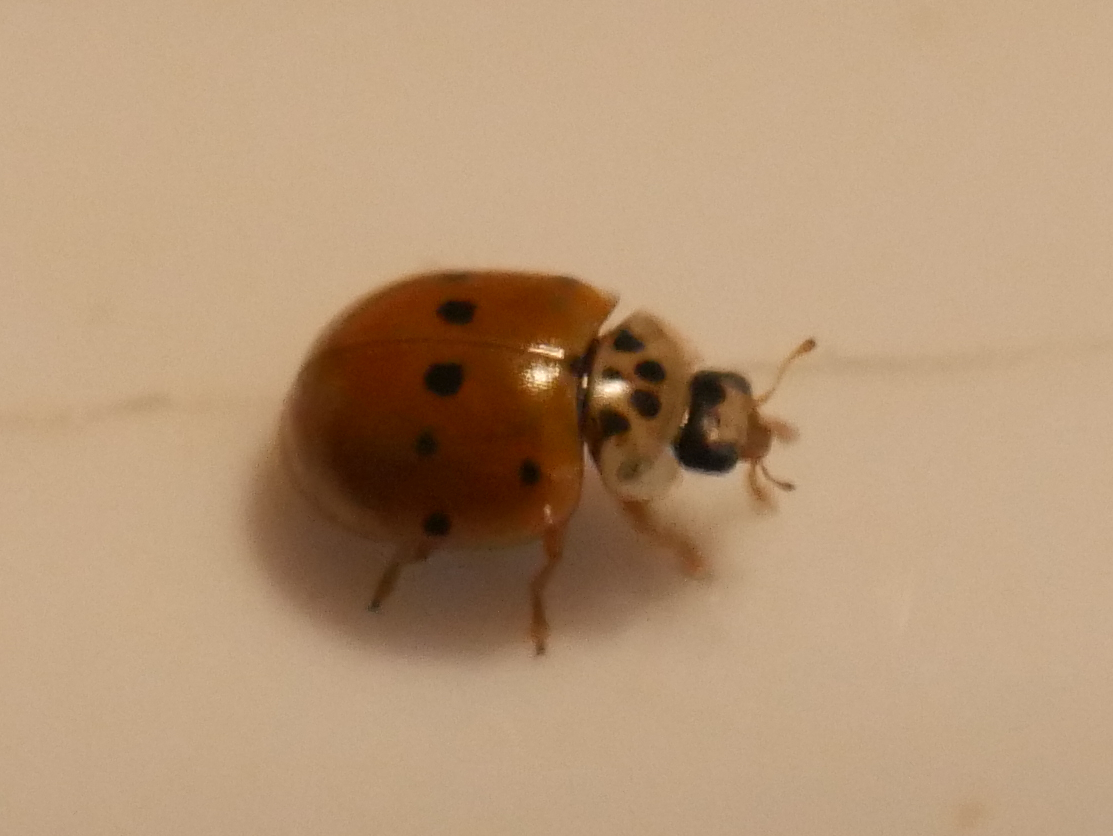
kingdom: Animalia
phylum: Arthropoda
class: Insecta
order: Coleoptera
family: Coccinellidae
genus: Adalia
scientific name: Adalia decempunctata
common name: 10-spot ladybird
